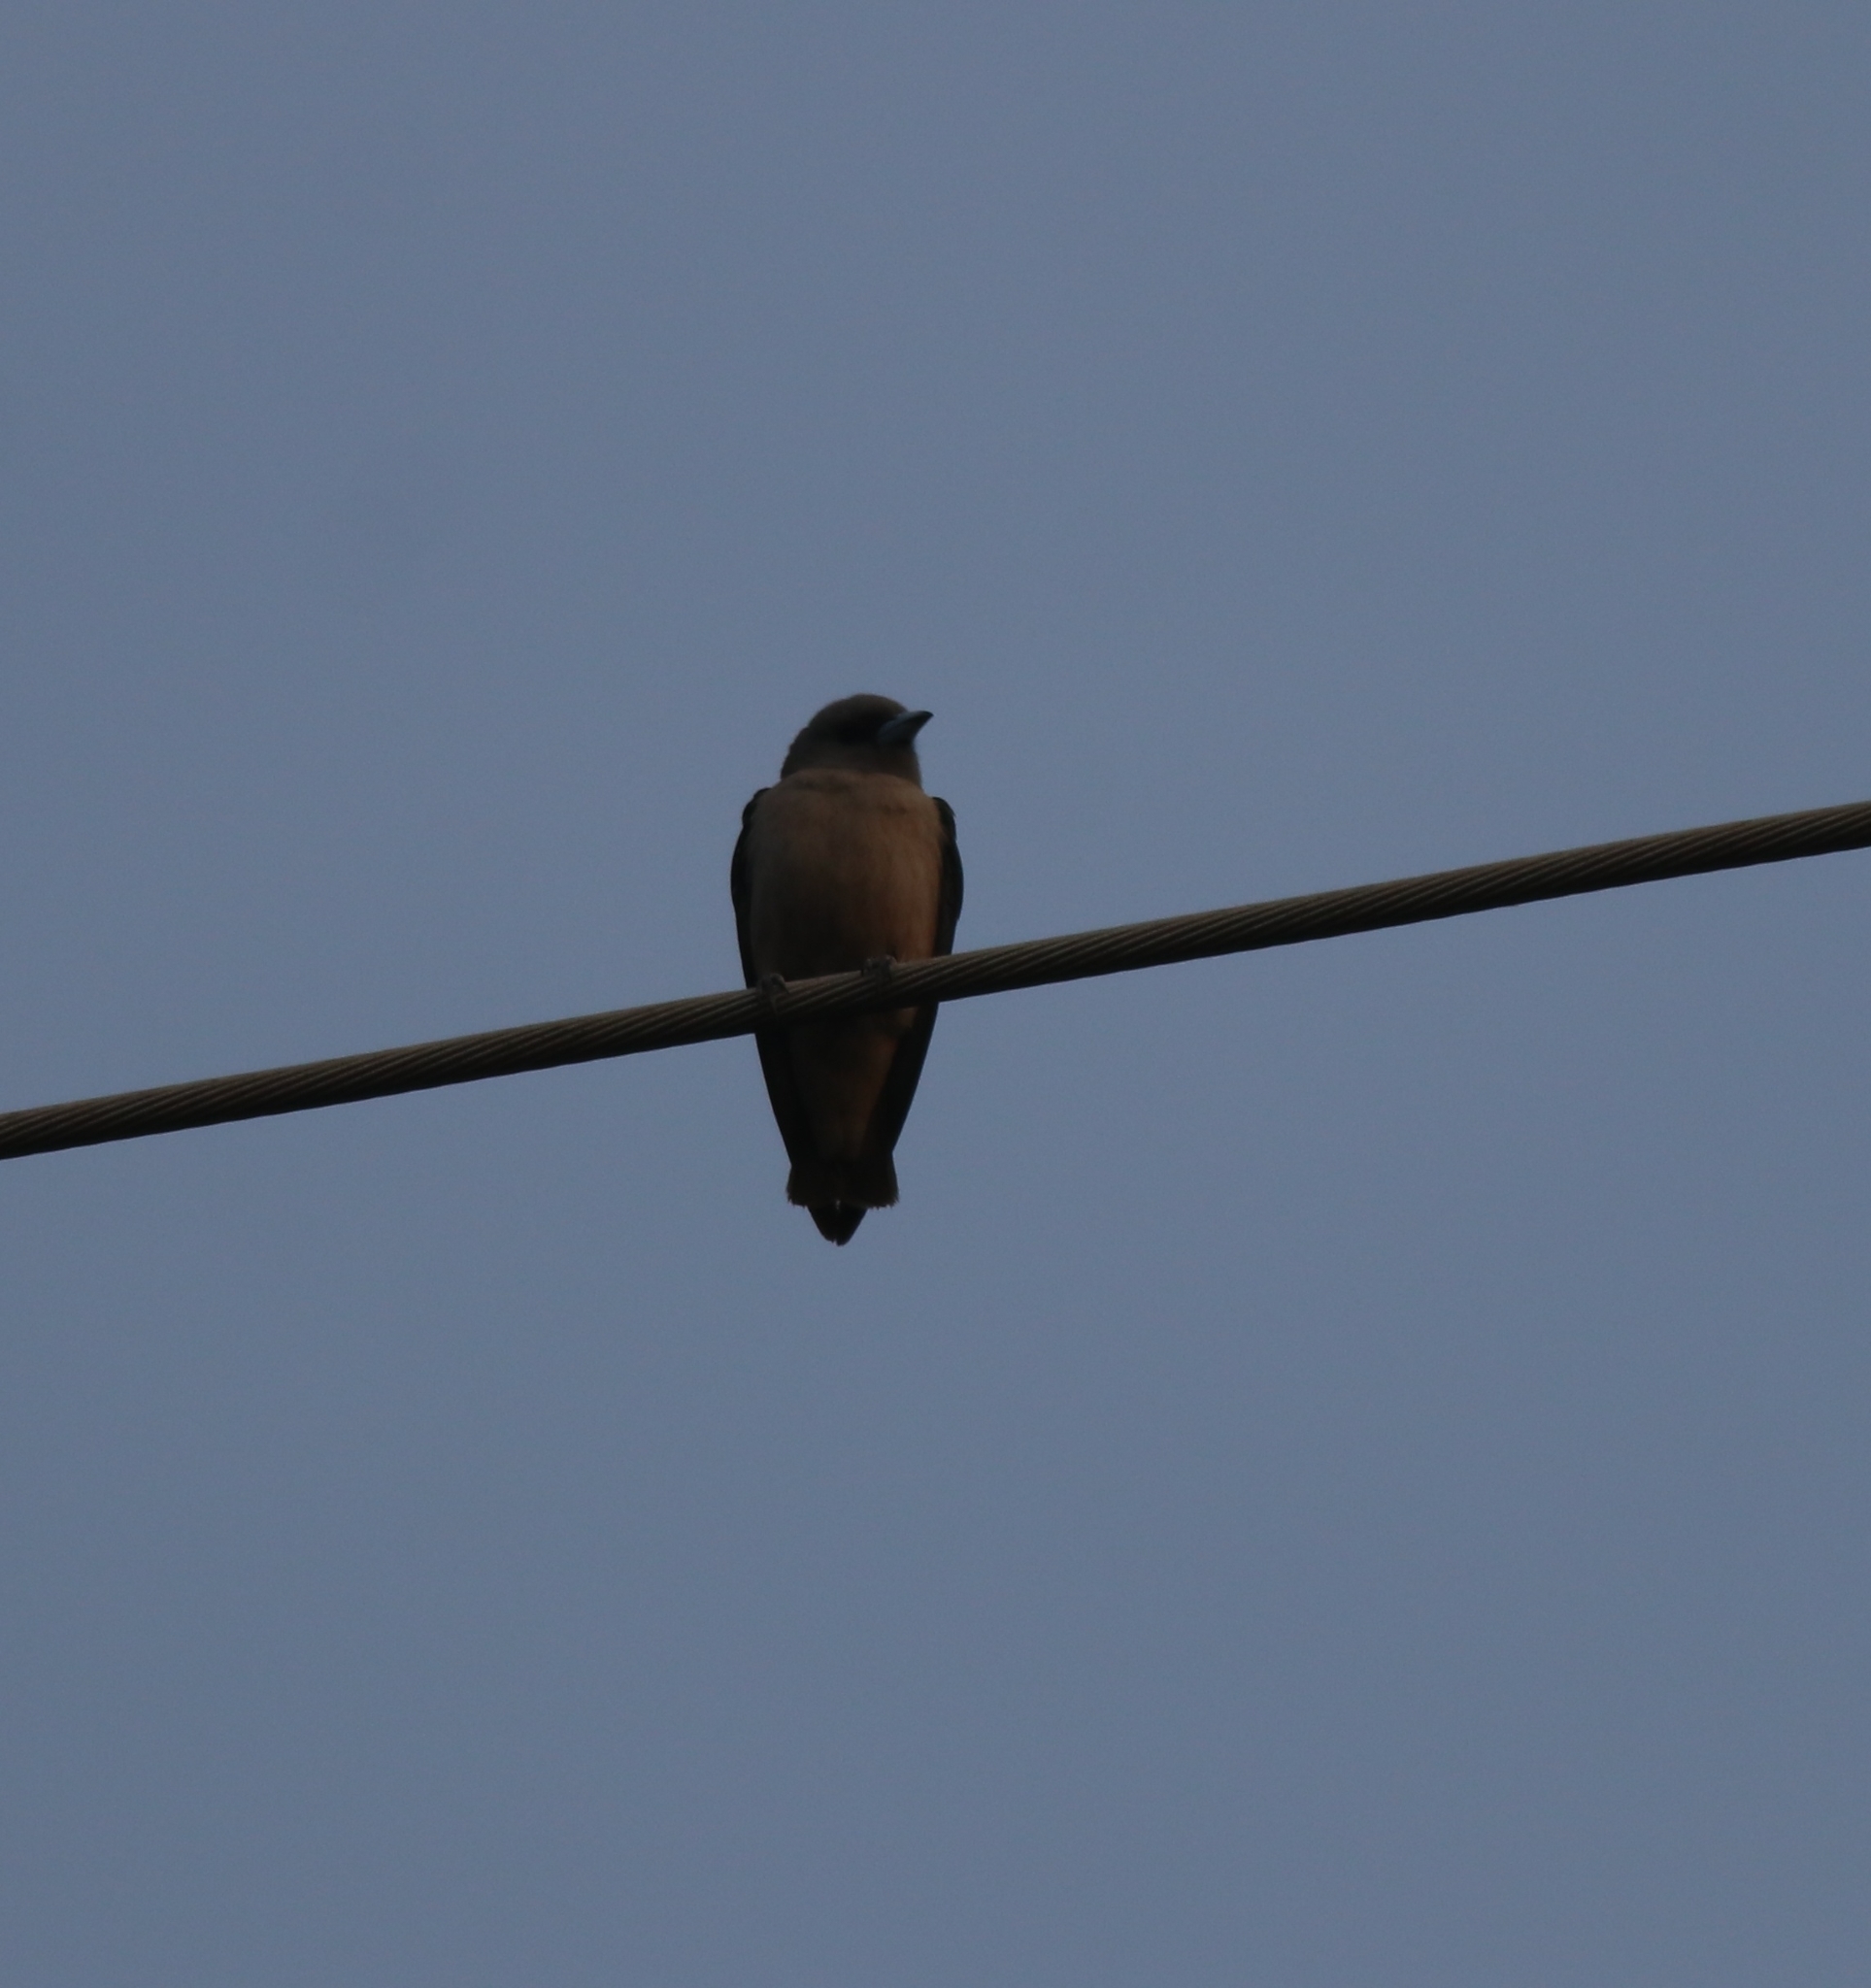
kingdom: Animalia
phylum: Chordata
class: Aves
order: Passeriformes
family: Artamidae
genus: Artamus
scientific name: Artamus fuscus
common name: Ashy woodswallow
